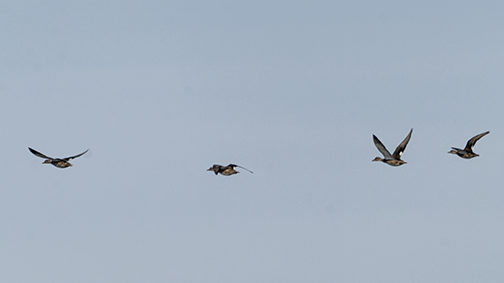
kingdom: Animalia
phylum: Chordata
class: Aves
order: Anseriformes
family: Anatidae
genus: Mareca
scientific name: Mareca strepera
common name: Gadwall
